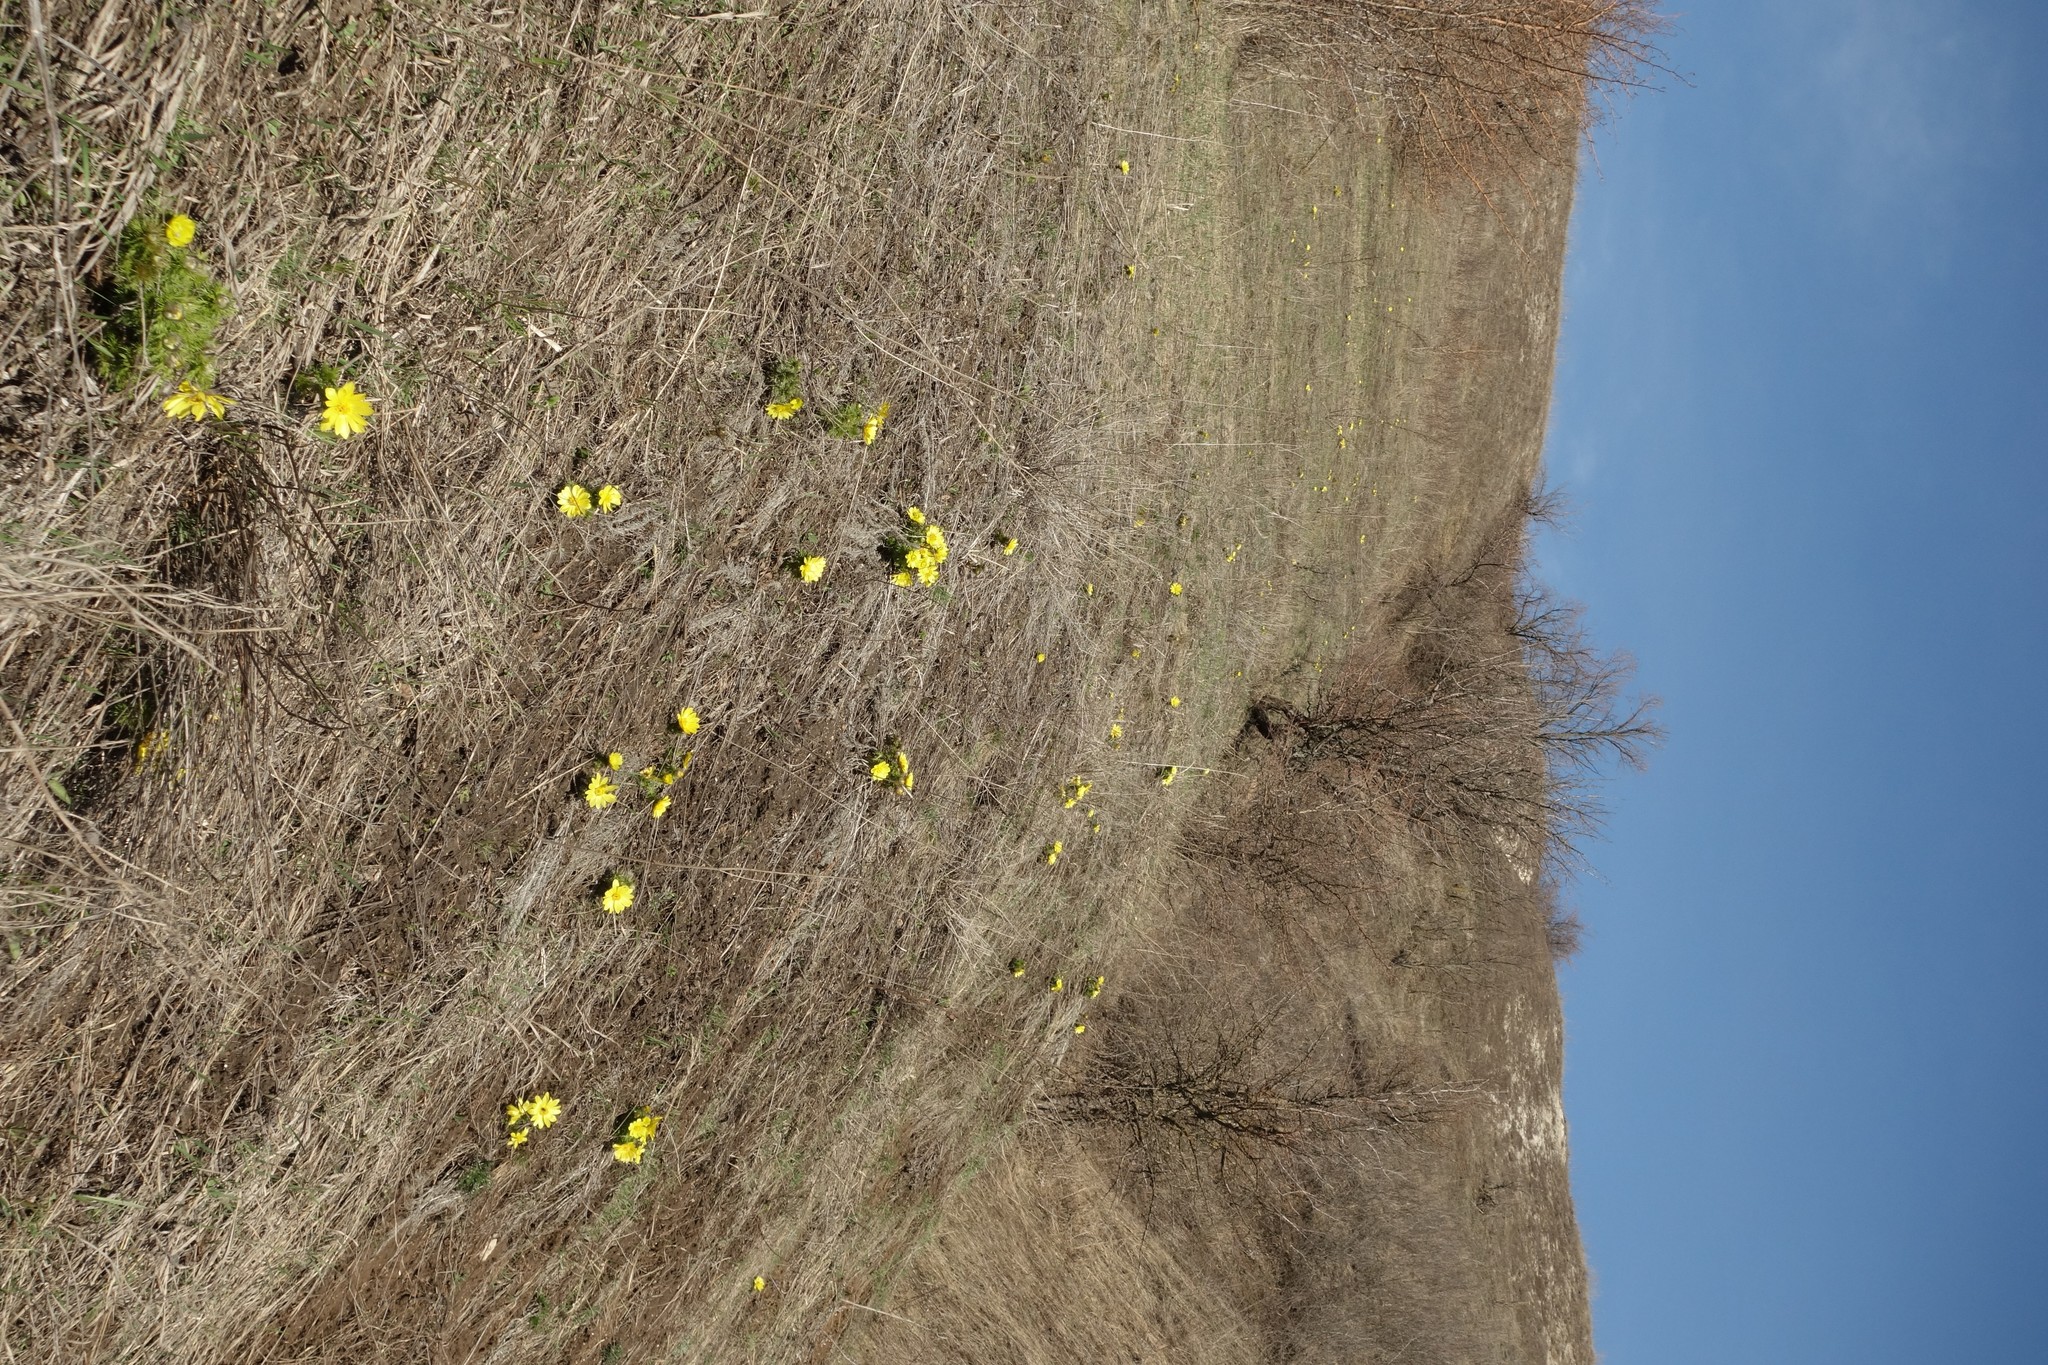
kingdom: Plantae
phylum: Tracheophyta
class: Magnoliopsida
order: Ranunculales
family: Ranunculaceae
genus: Adonis
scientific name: Adonis vernalis
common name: Yellow pheasants-eye
